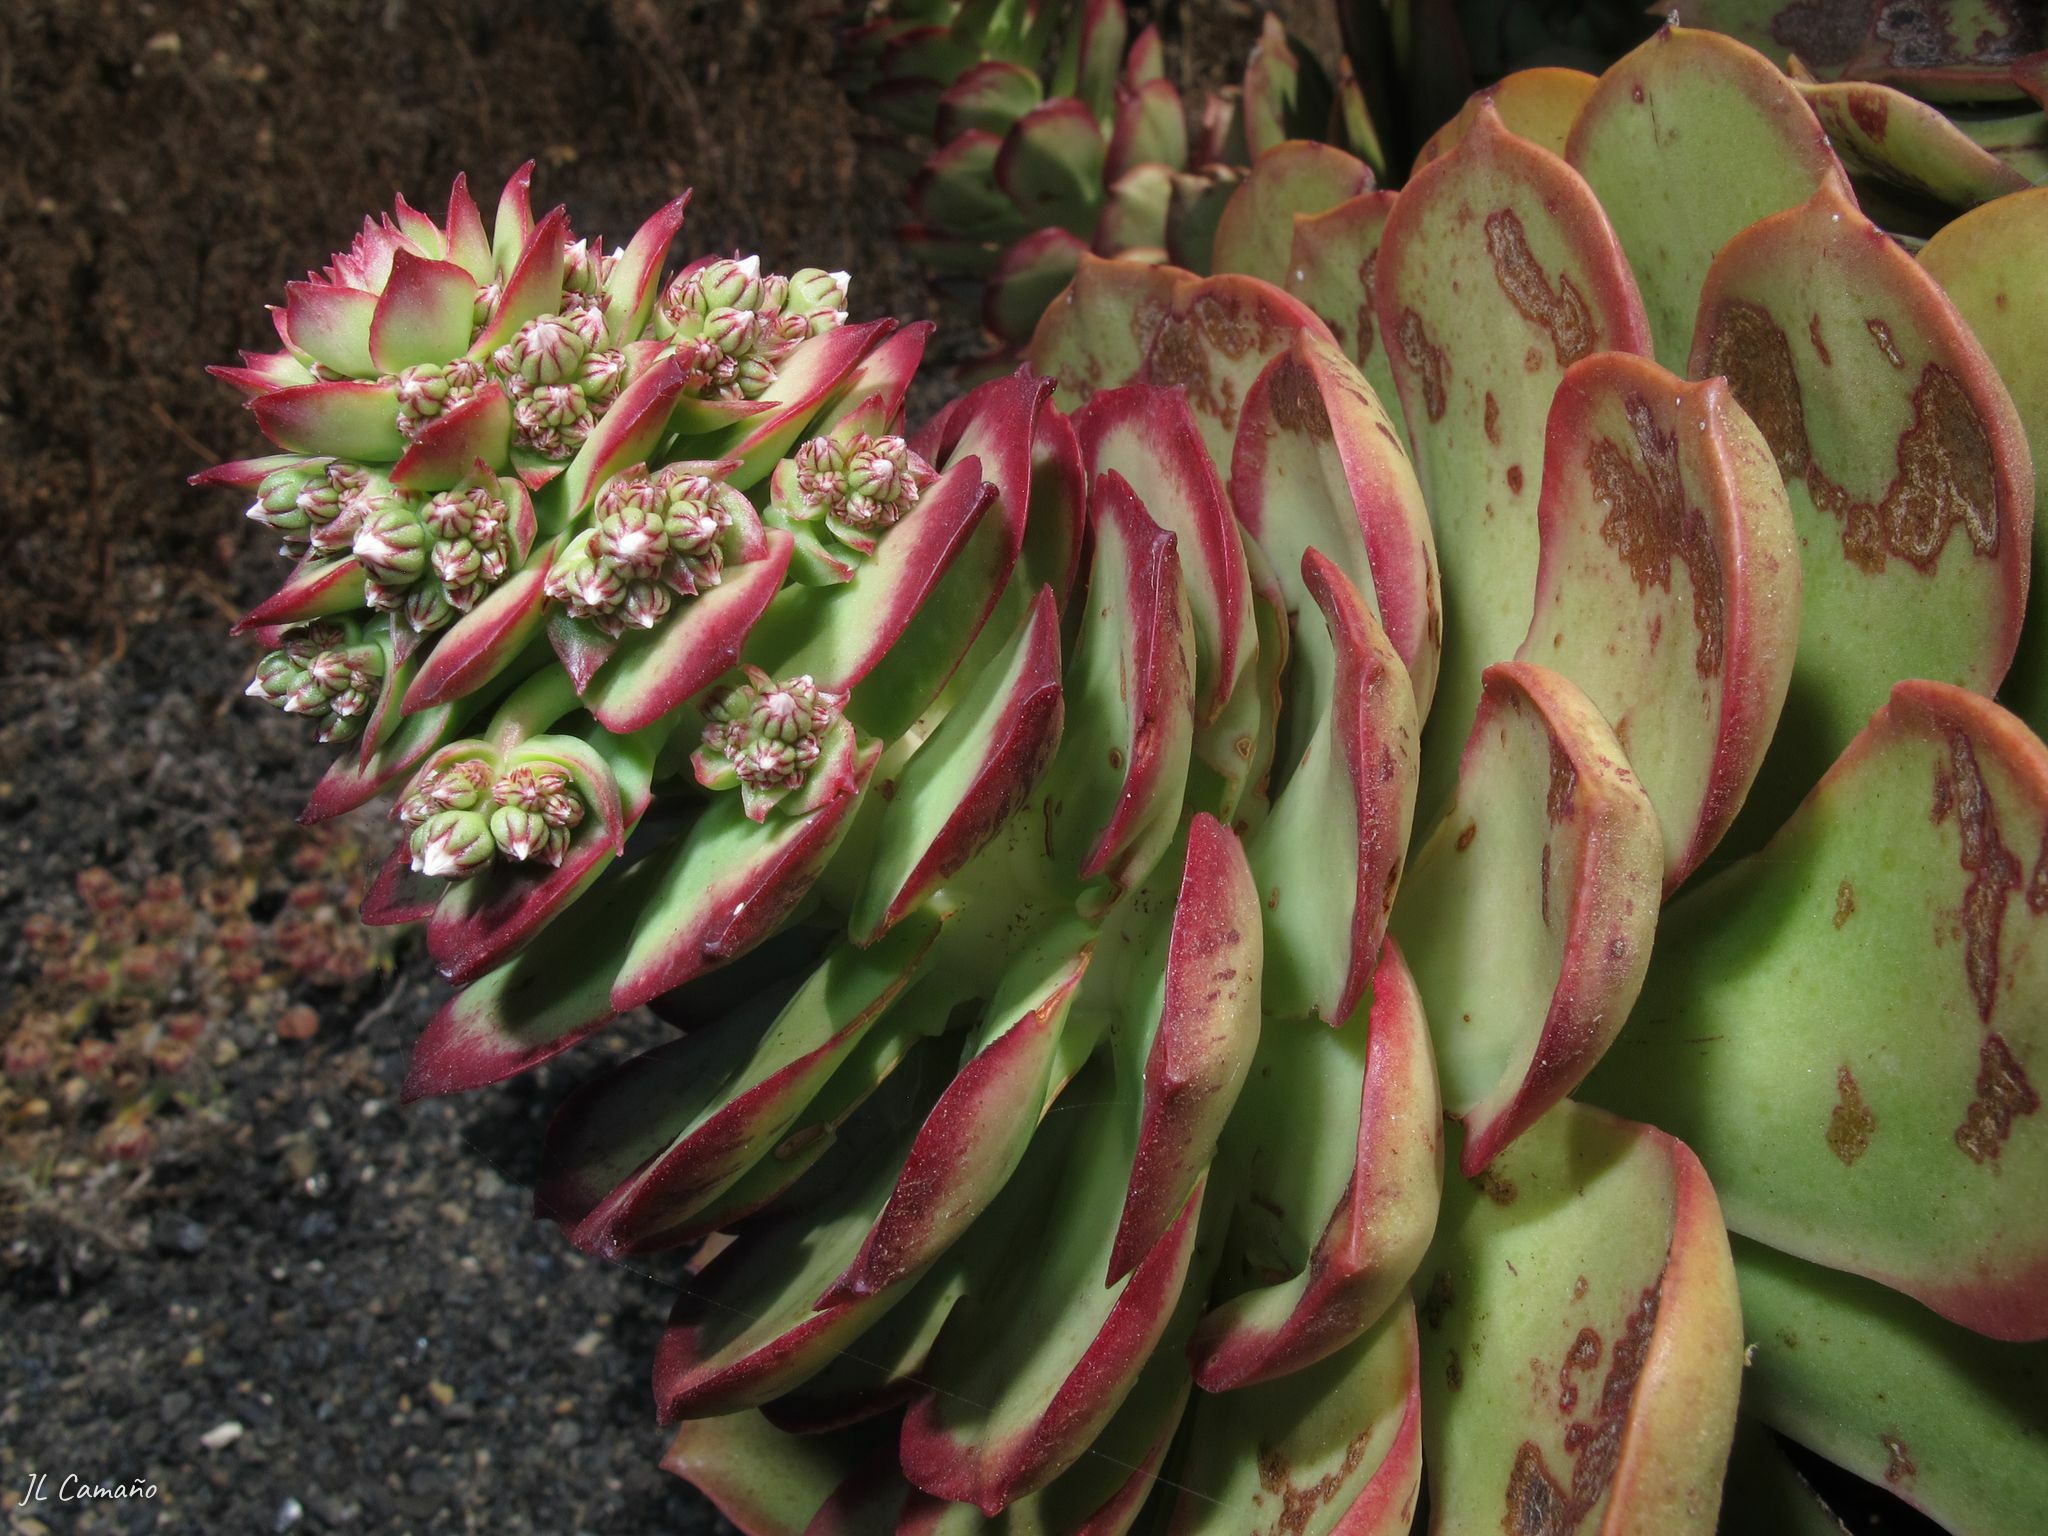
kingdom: Plantae
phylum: Tracheophyta
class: Magnoliopsida
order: Saxifragales
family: Crassulaceae
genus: Aeonium
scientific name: Aeonium lancerottense
